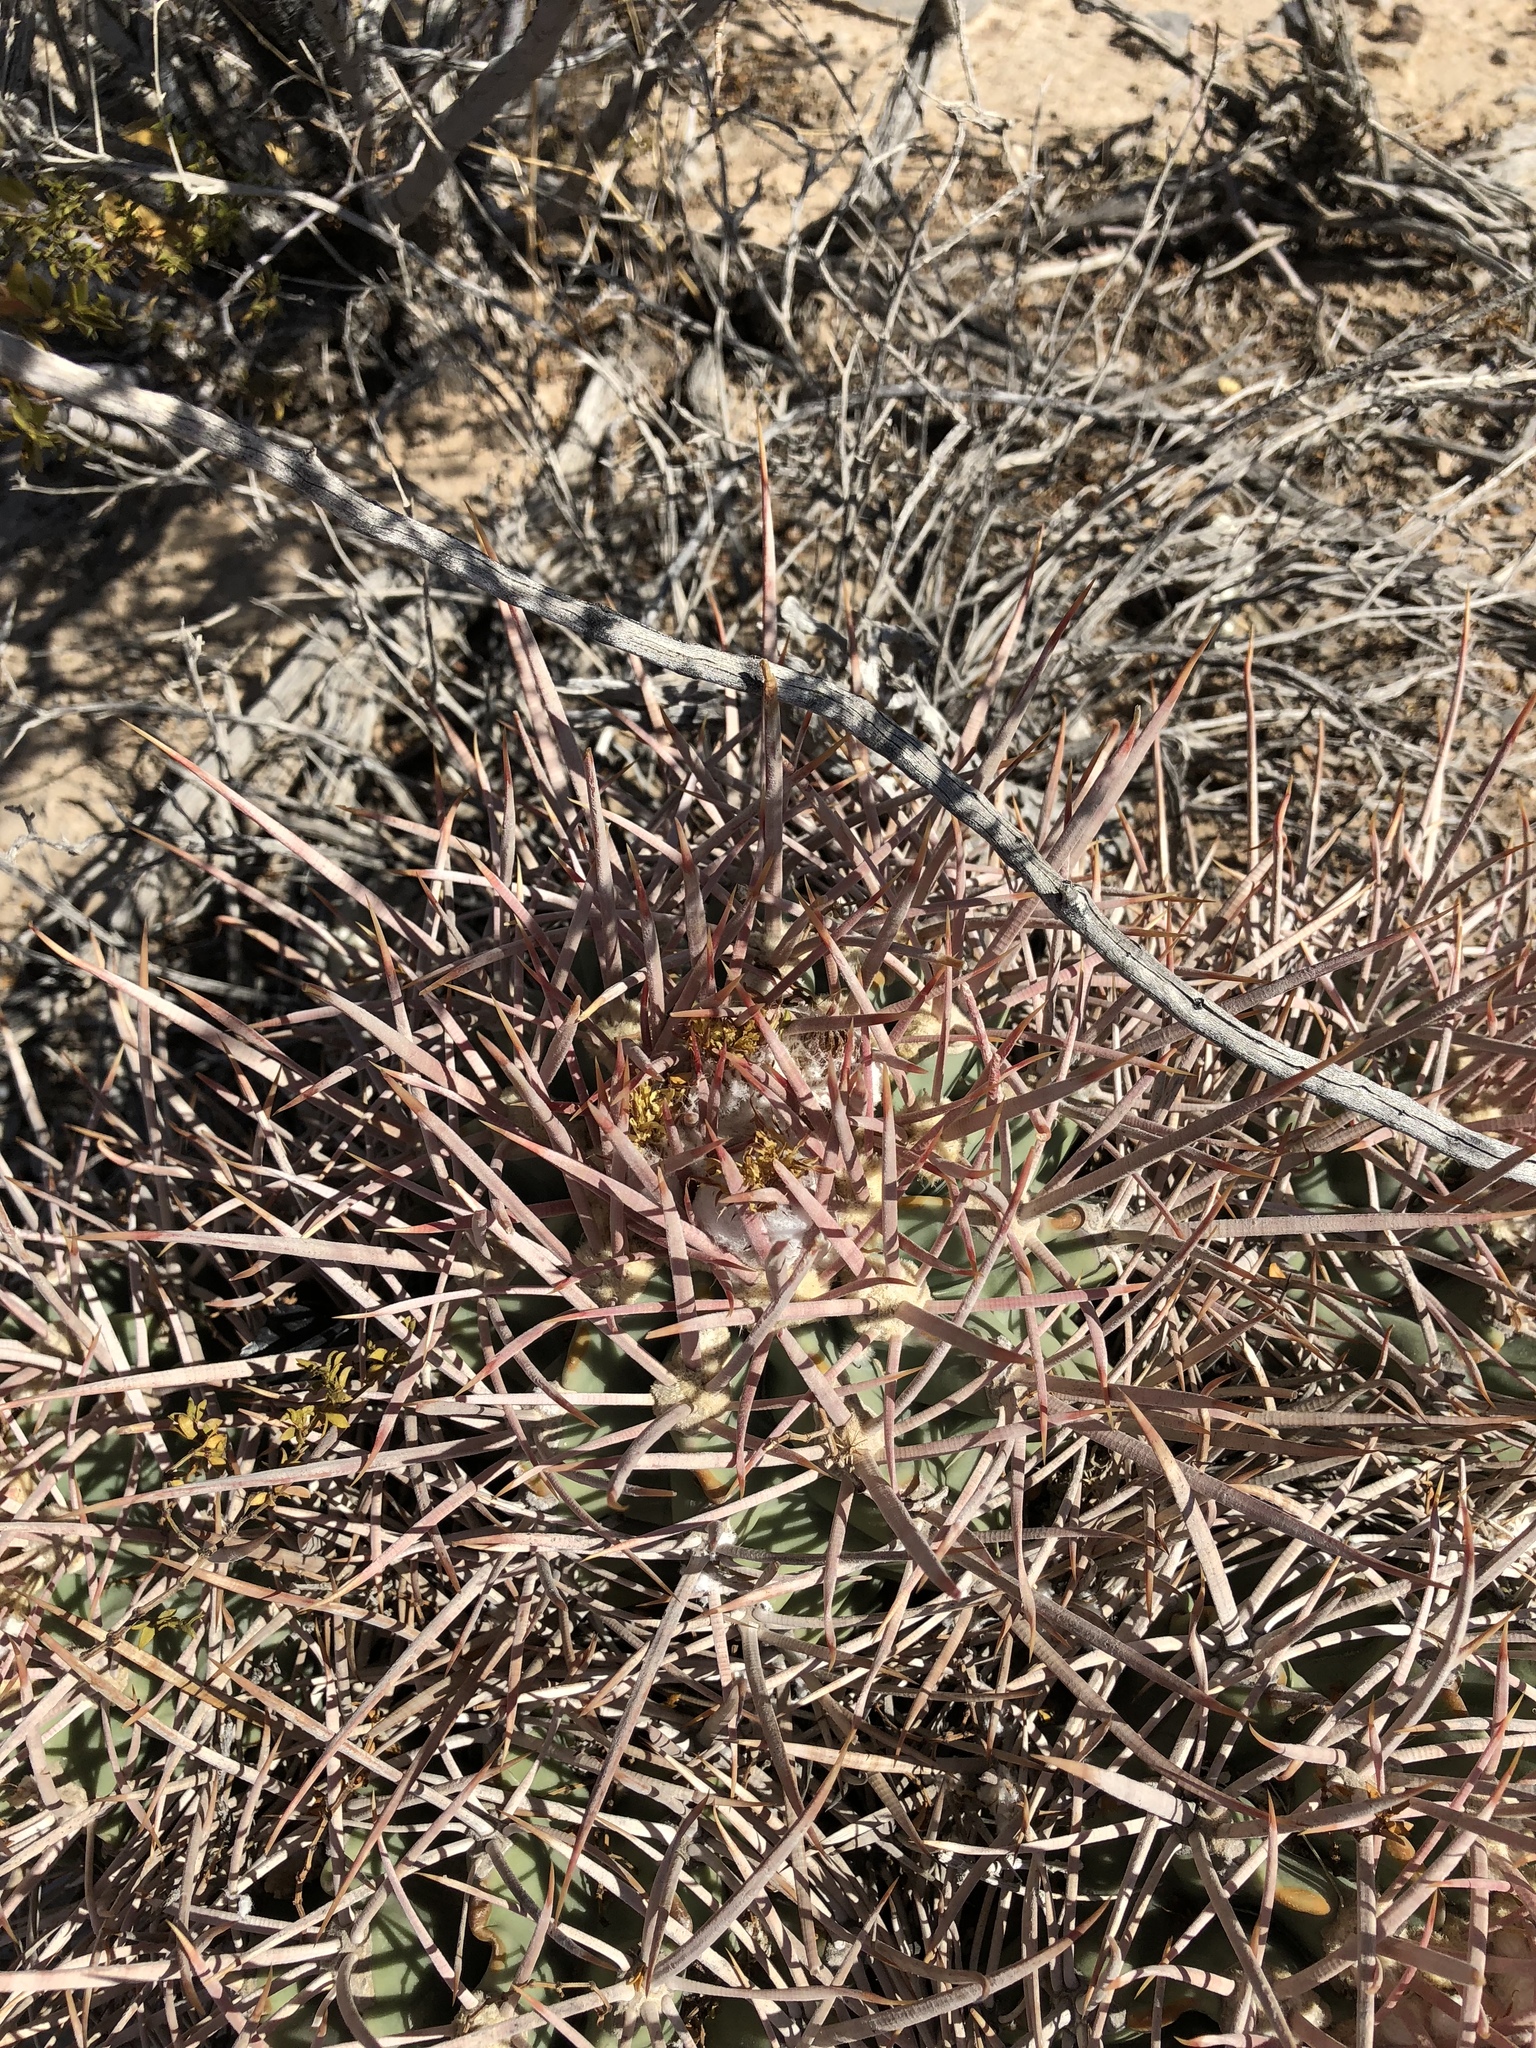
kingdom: Plantae
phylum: Tracheophyta
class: Magnoliopsida
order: Caryophyllales
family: Cactaceae
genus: Echinocactus
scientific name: Echinocactus polycephalus
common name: Cottontop cactus
